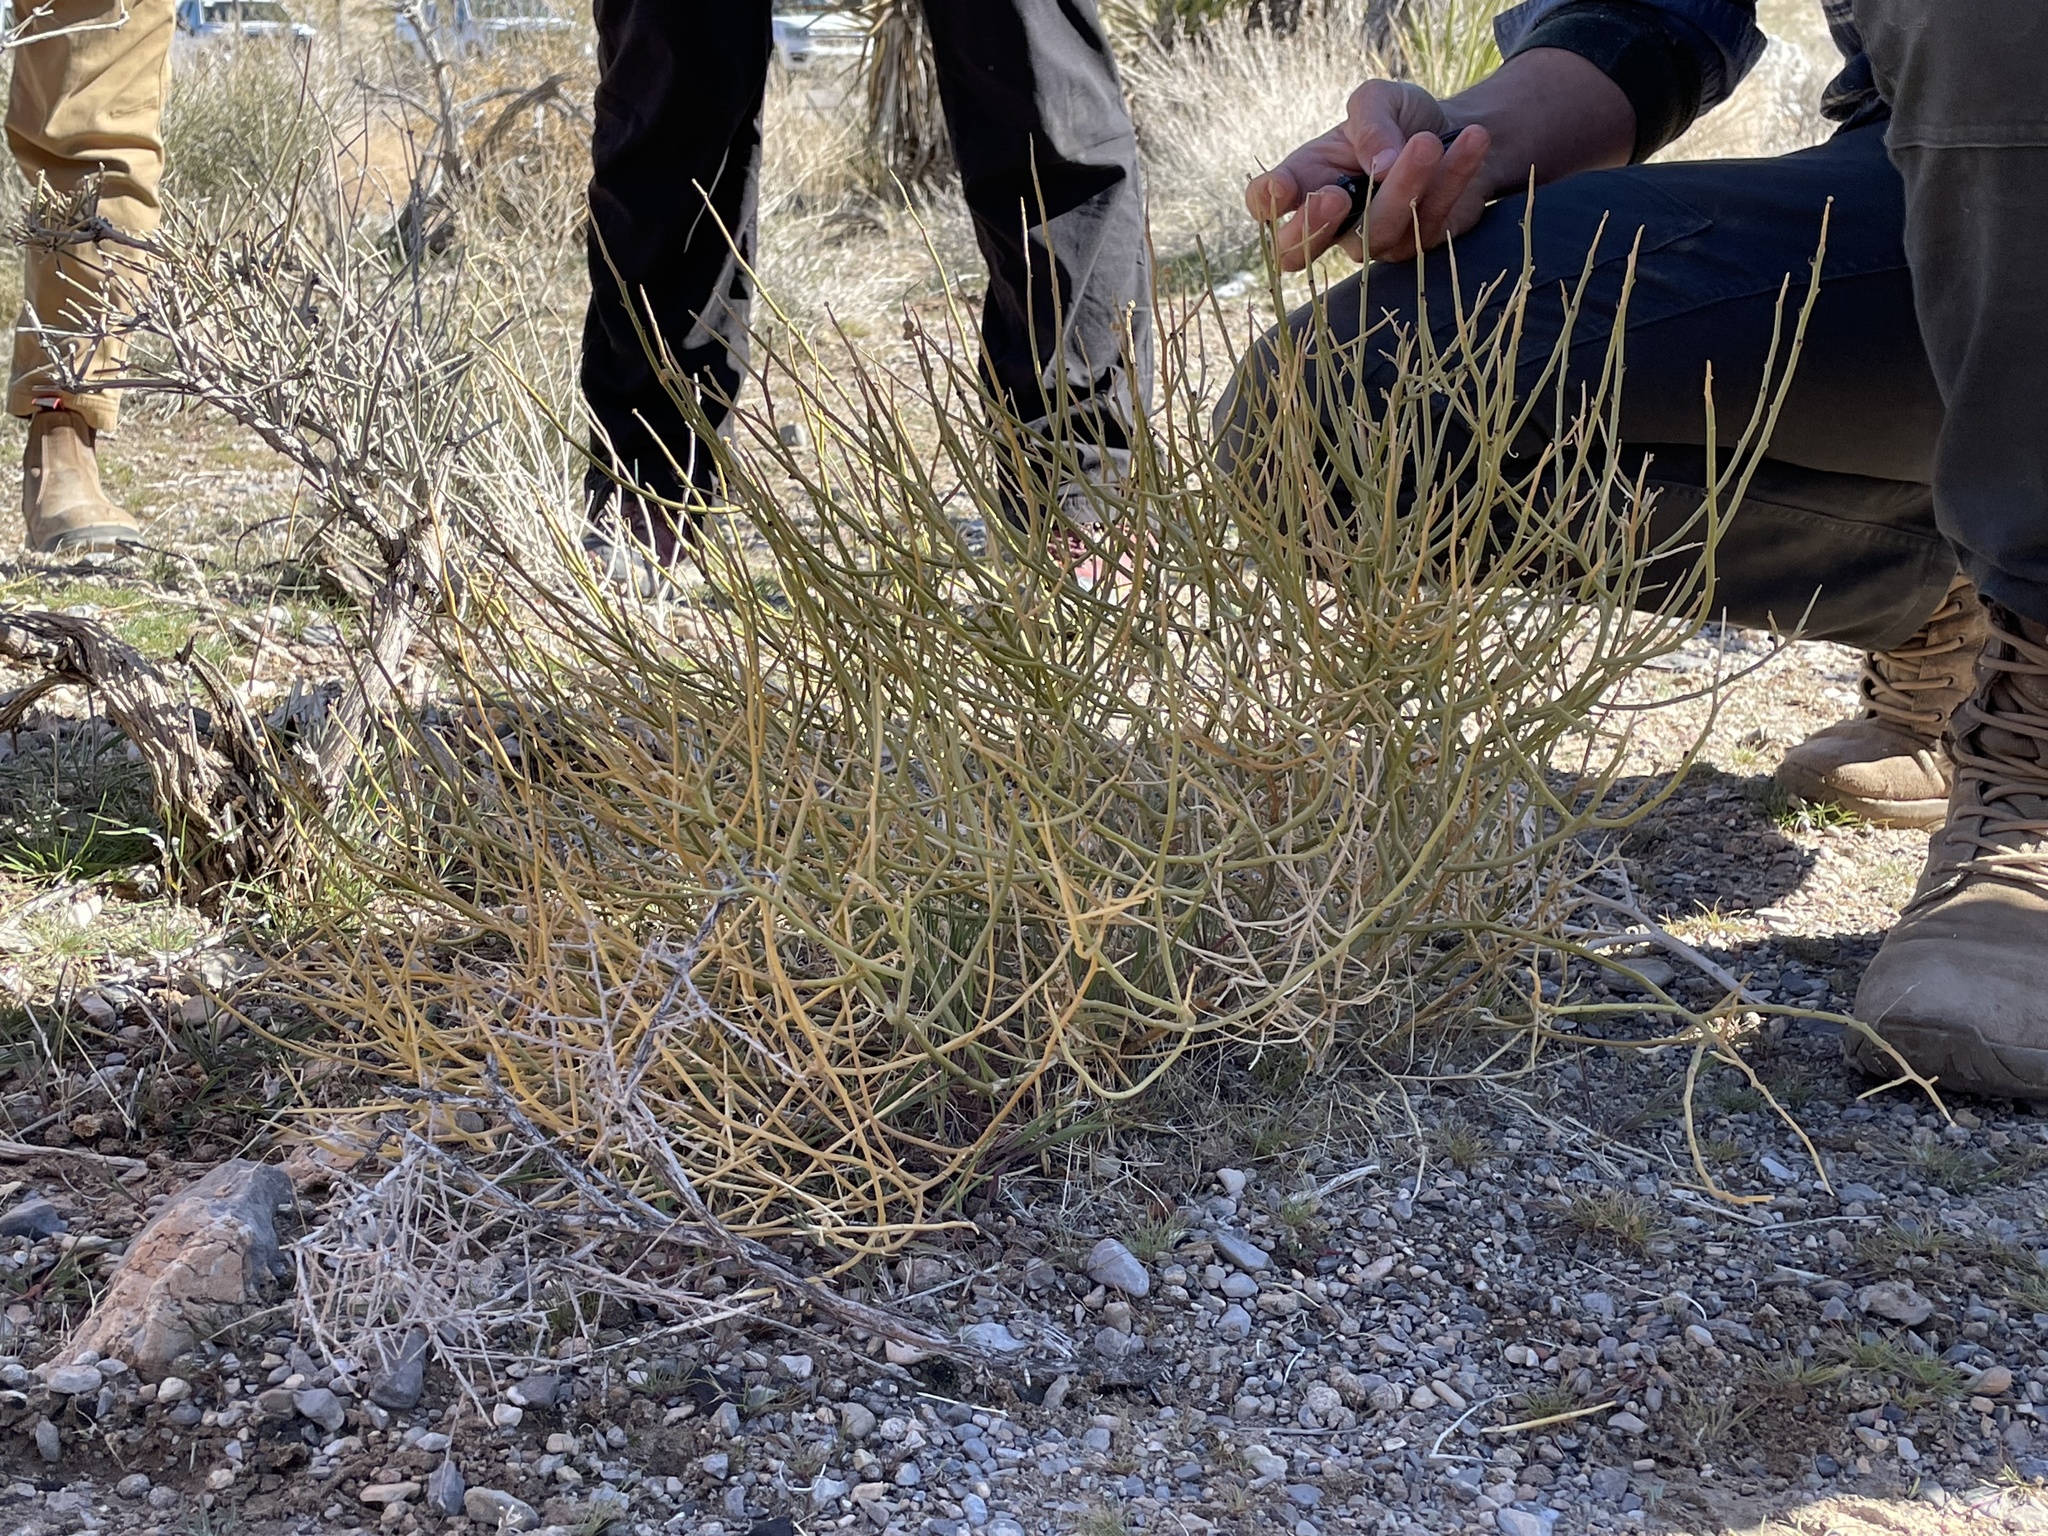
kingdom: Plantae
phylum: Tracheophyta
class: Magnoliopsida
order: Sapindales
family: Rutaceae
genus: Thamnosma
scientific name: Thamnosma montana
